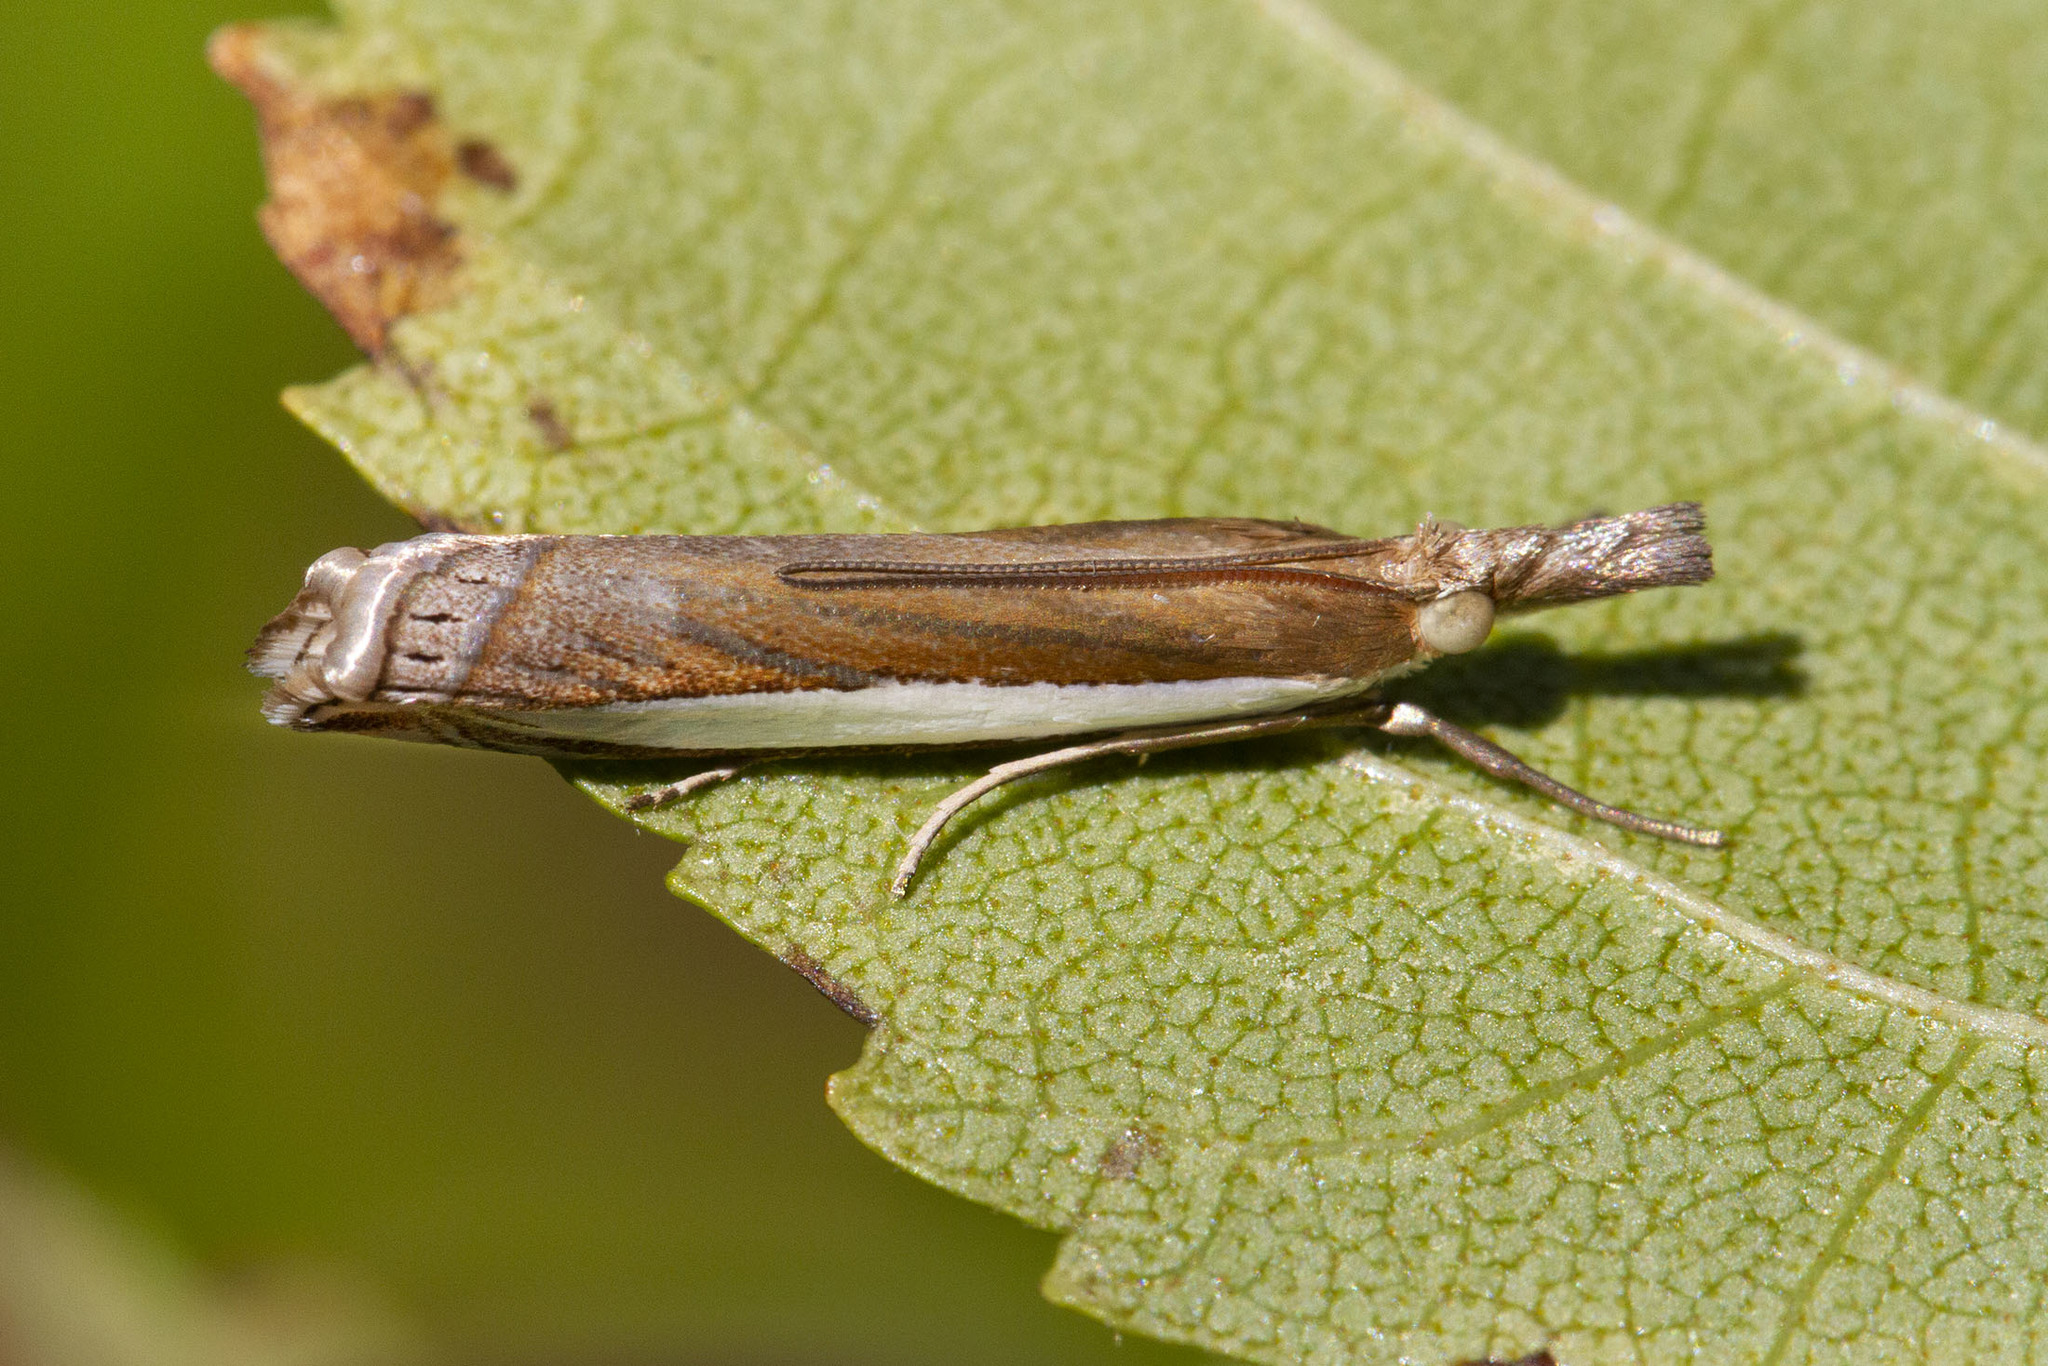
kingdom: Animalia
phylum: Arthropoda
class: Insecta
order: Lepidoptera
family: Crambidae
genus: Crambus
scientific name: Crambus leachellus
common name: Leach's grass-veneer
